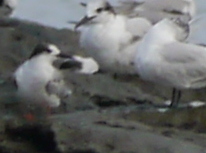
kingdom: Animalia
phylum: Chordata
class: Aves
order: Charadriiformes
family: Laridae
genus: Sterna
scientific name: Sterna hirundo
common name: Common tern
